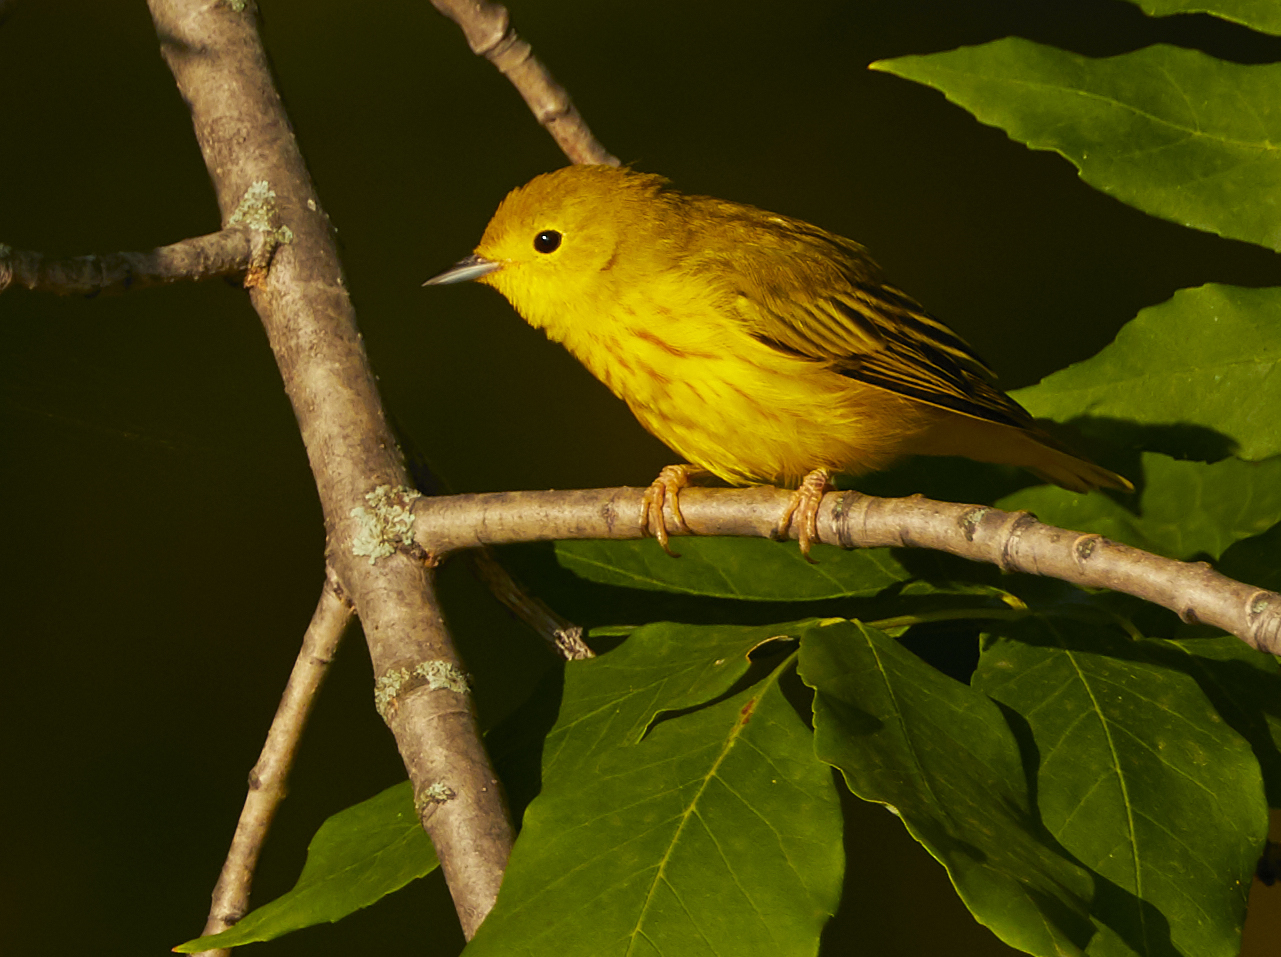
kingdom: Animalia
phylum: Chordata
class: Aves
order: Passeriformes
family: Parulidae
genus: Setophaga
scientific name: Setophaga petechia
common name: Yellow warbler
